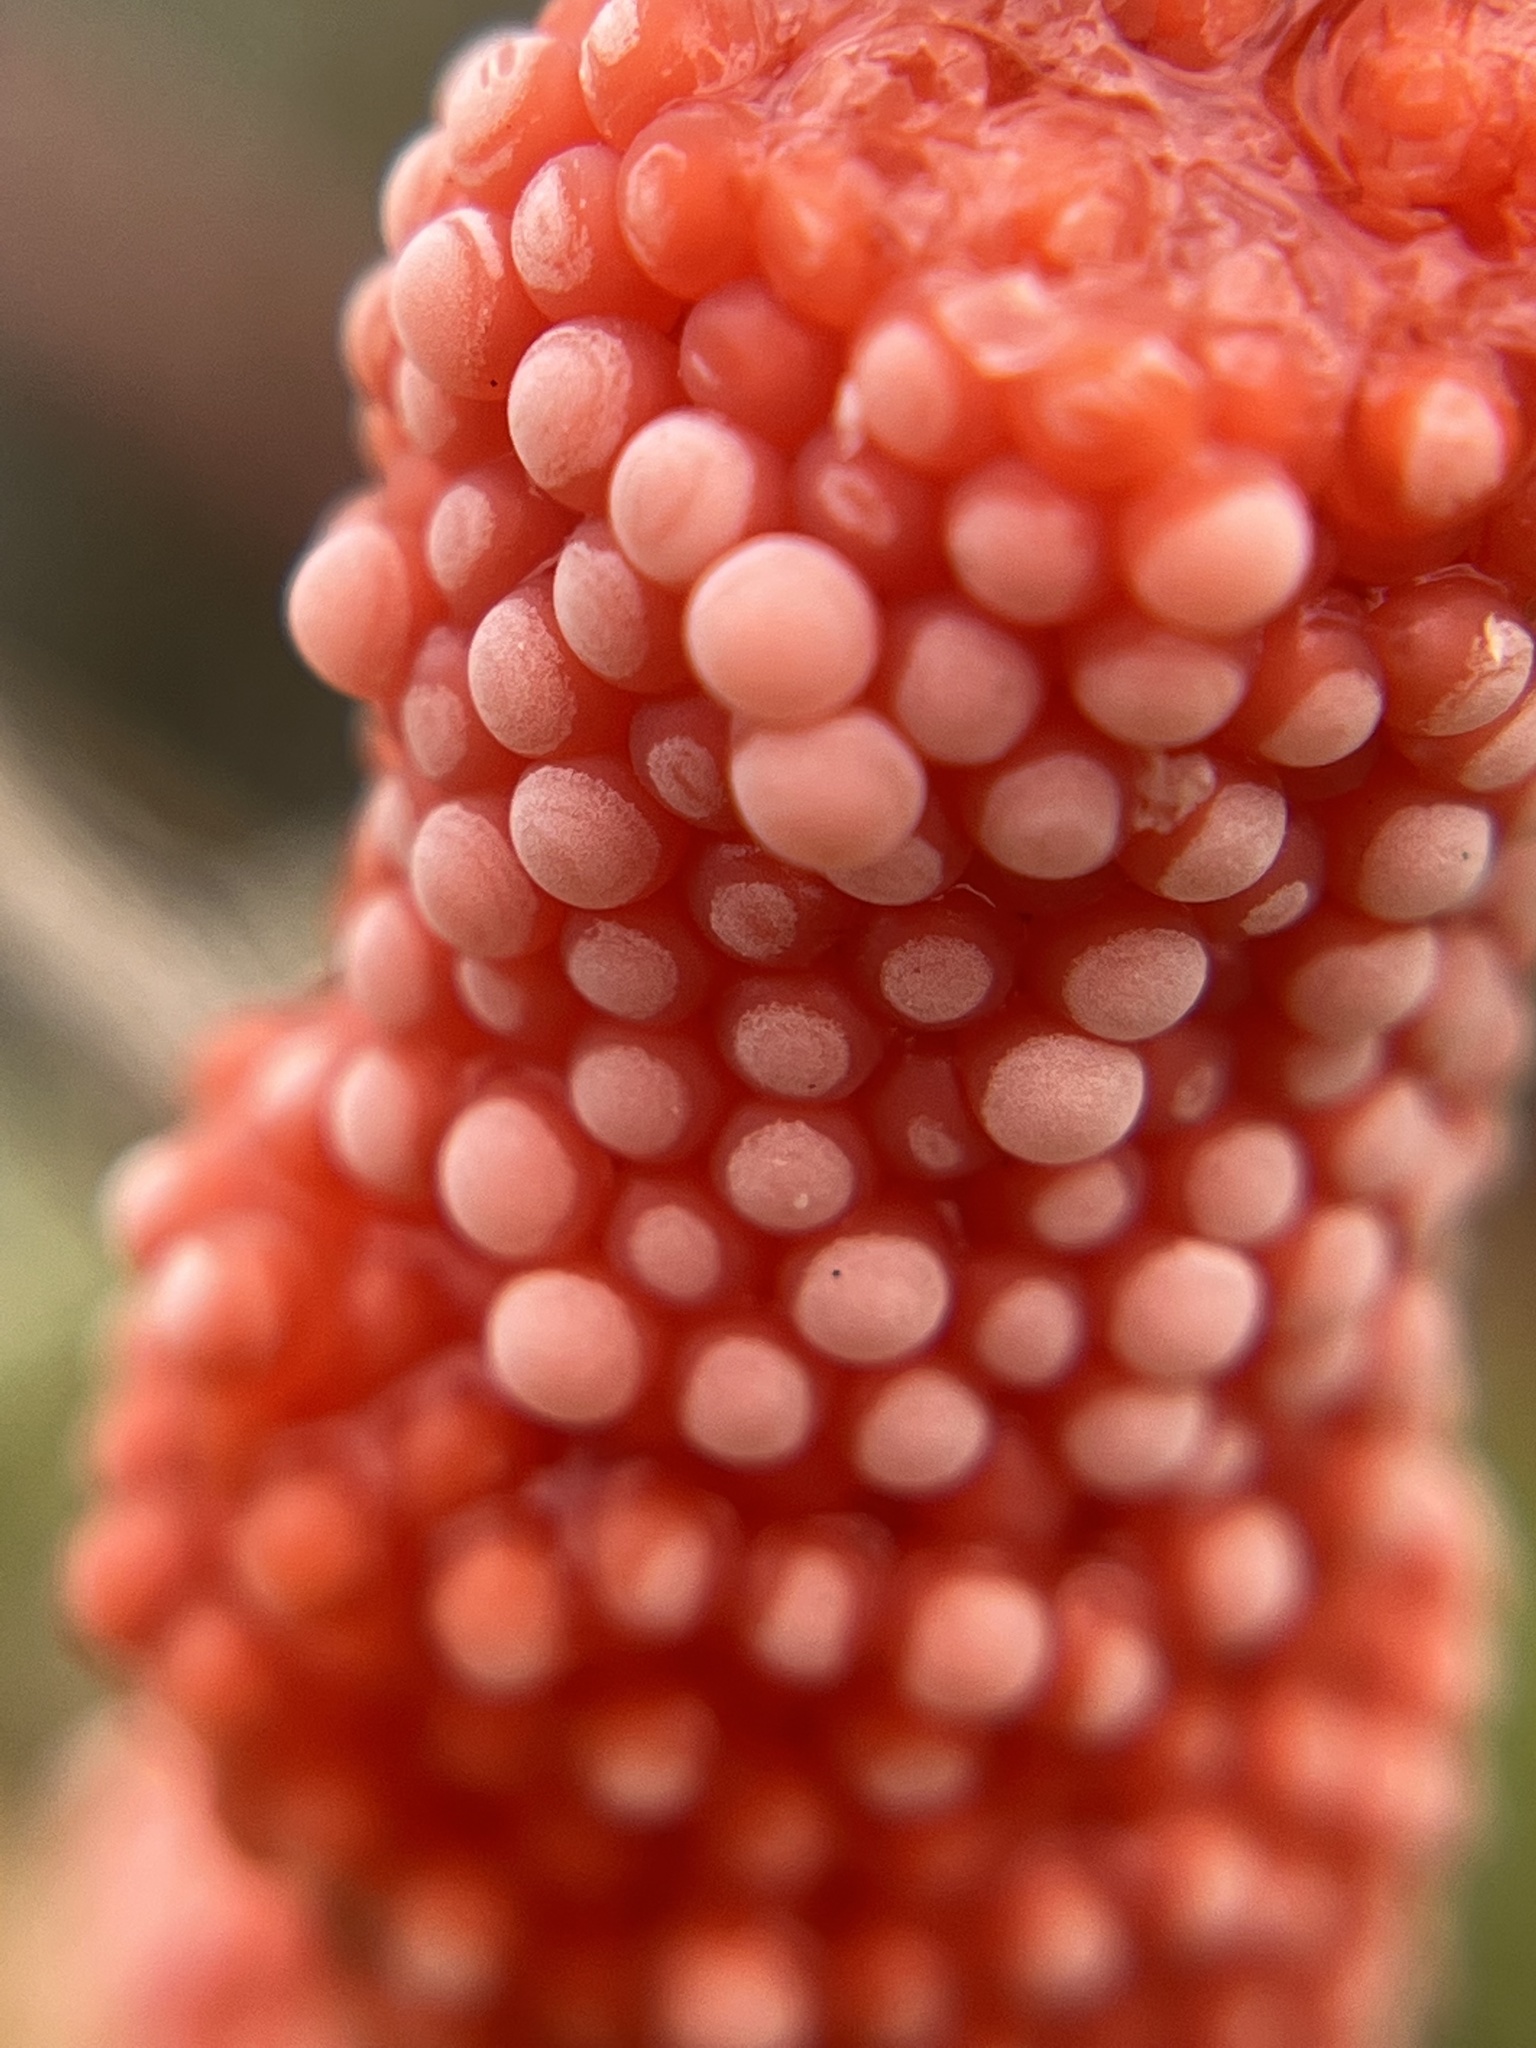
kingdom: Animalia
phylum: Mollusca
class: Gastropoda
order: Architaenioglossa
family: Ampullariidae
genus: Pomacea
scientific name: Pomacea maculata
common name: Giant applesnail
